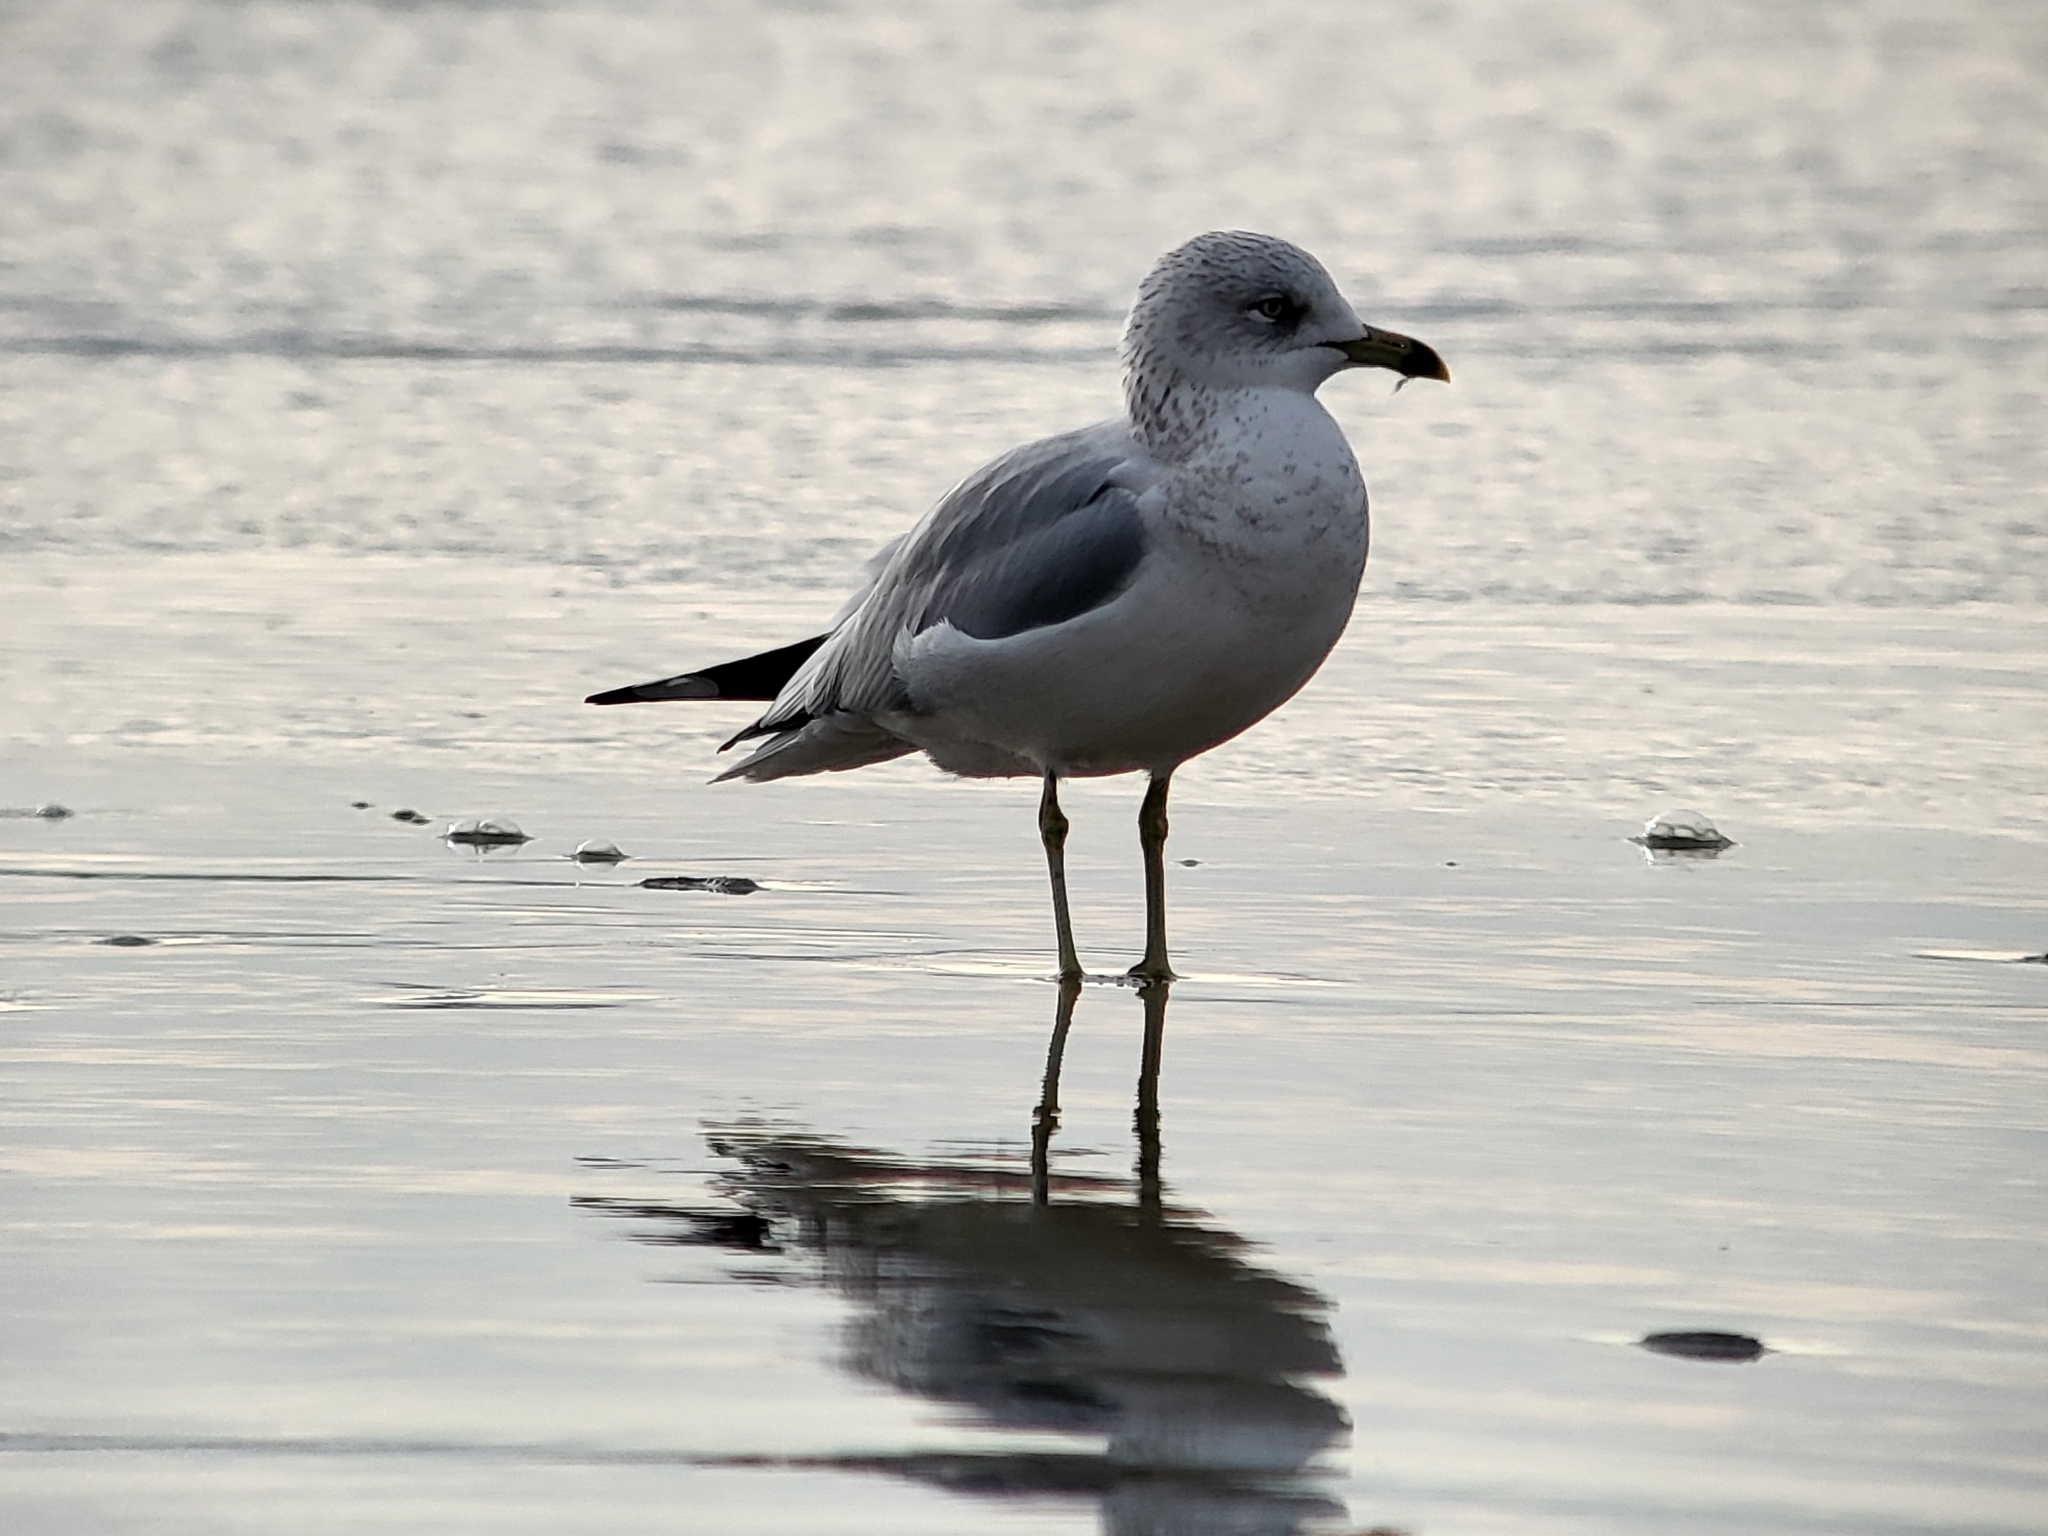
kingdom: Animalia
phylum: Chordata
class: Aves
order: Charadriiformes
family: Laridae
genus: Larus
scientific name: Larus delawarensis
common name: Ring-billed gull
